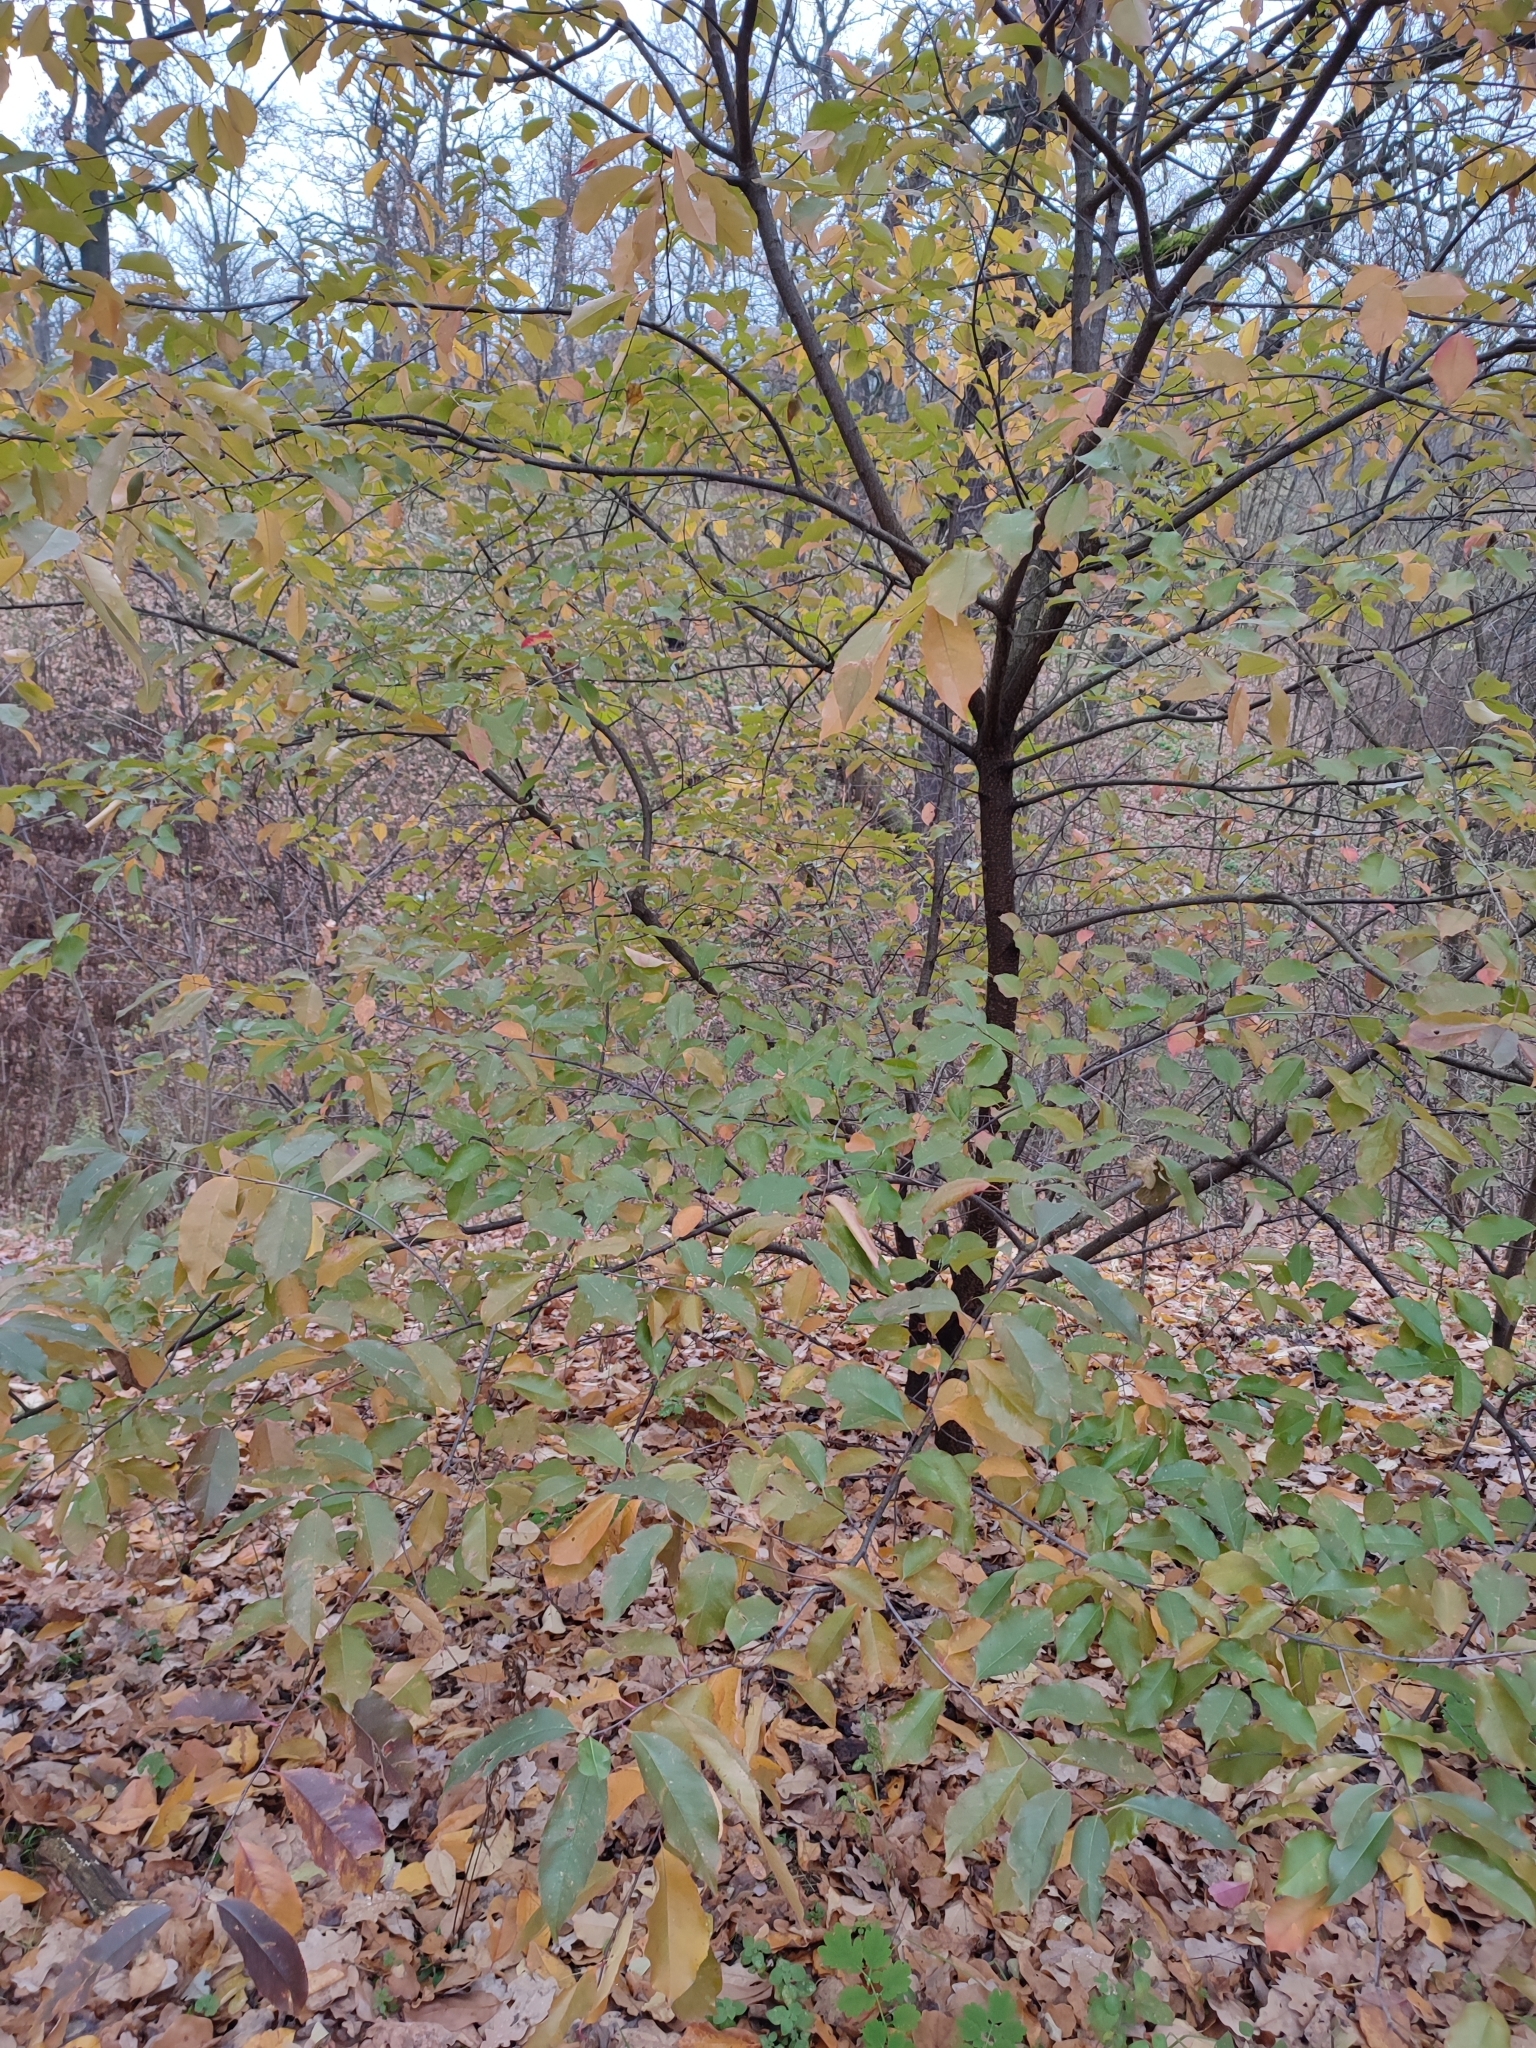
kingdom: Plantae
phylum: Tracheophyta
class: Magnoliopsida
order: Rosales
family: Rosaceae
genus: Prunus
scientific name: Prunus serotina
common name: Black cherry
